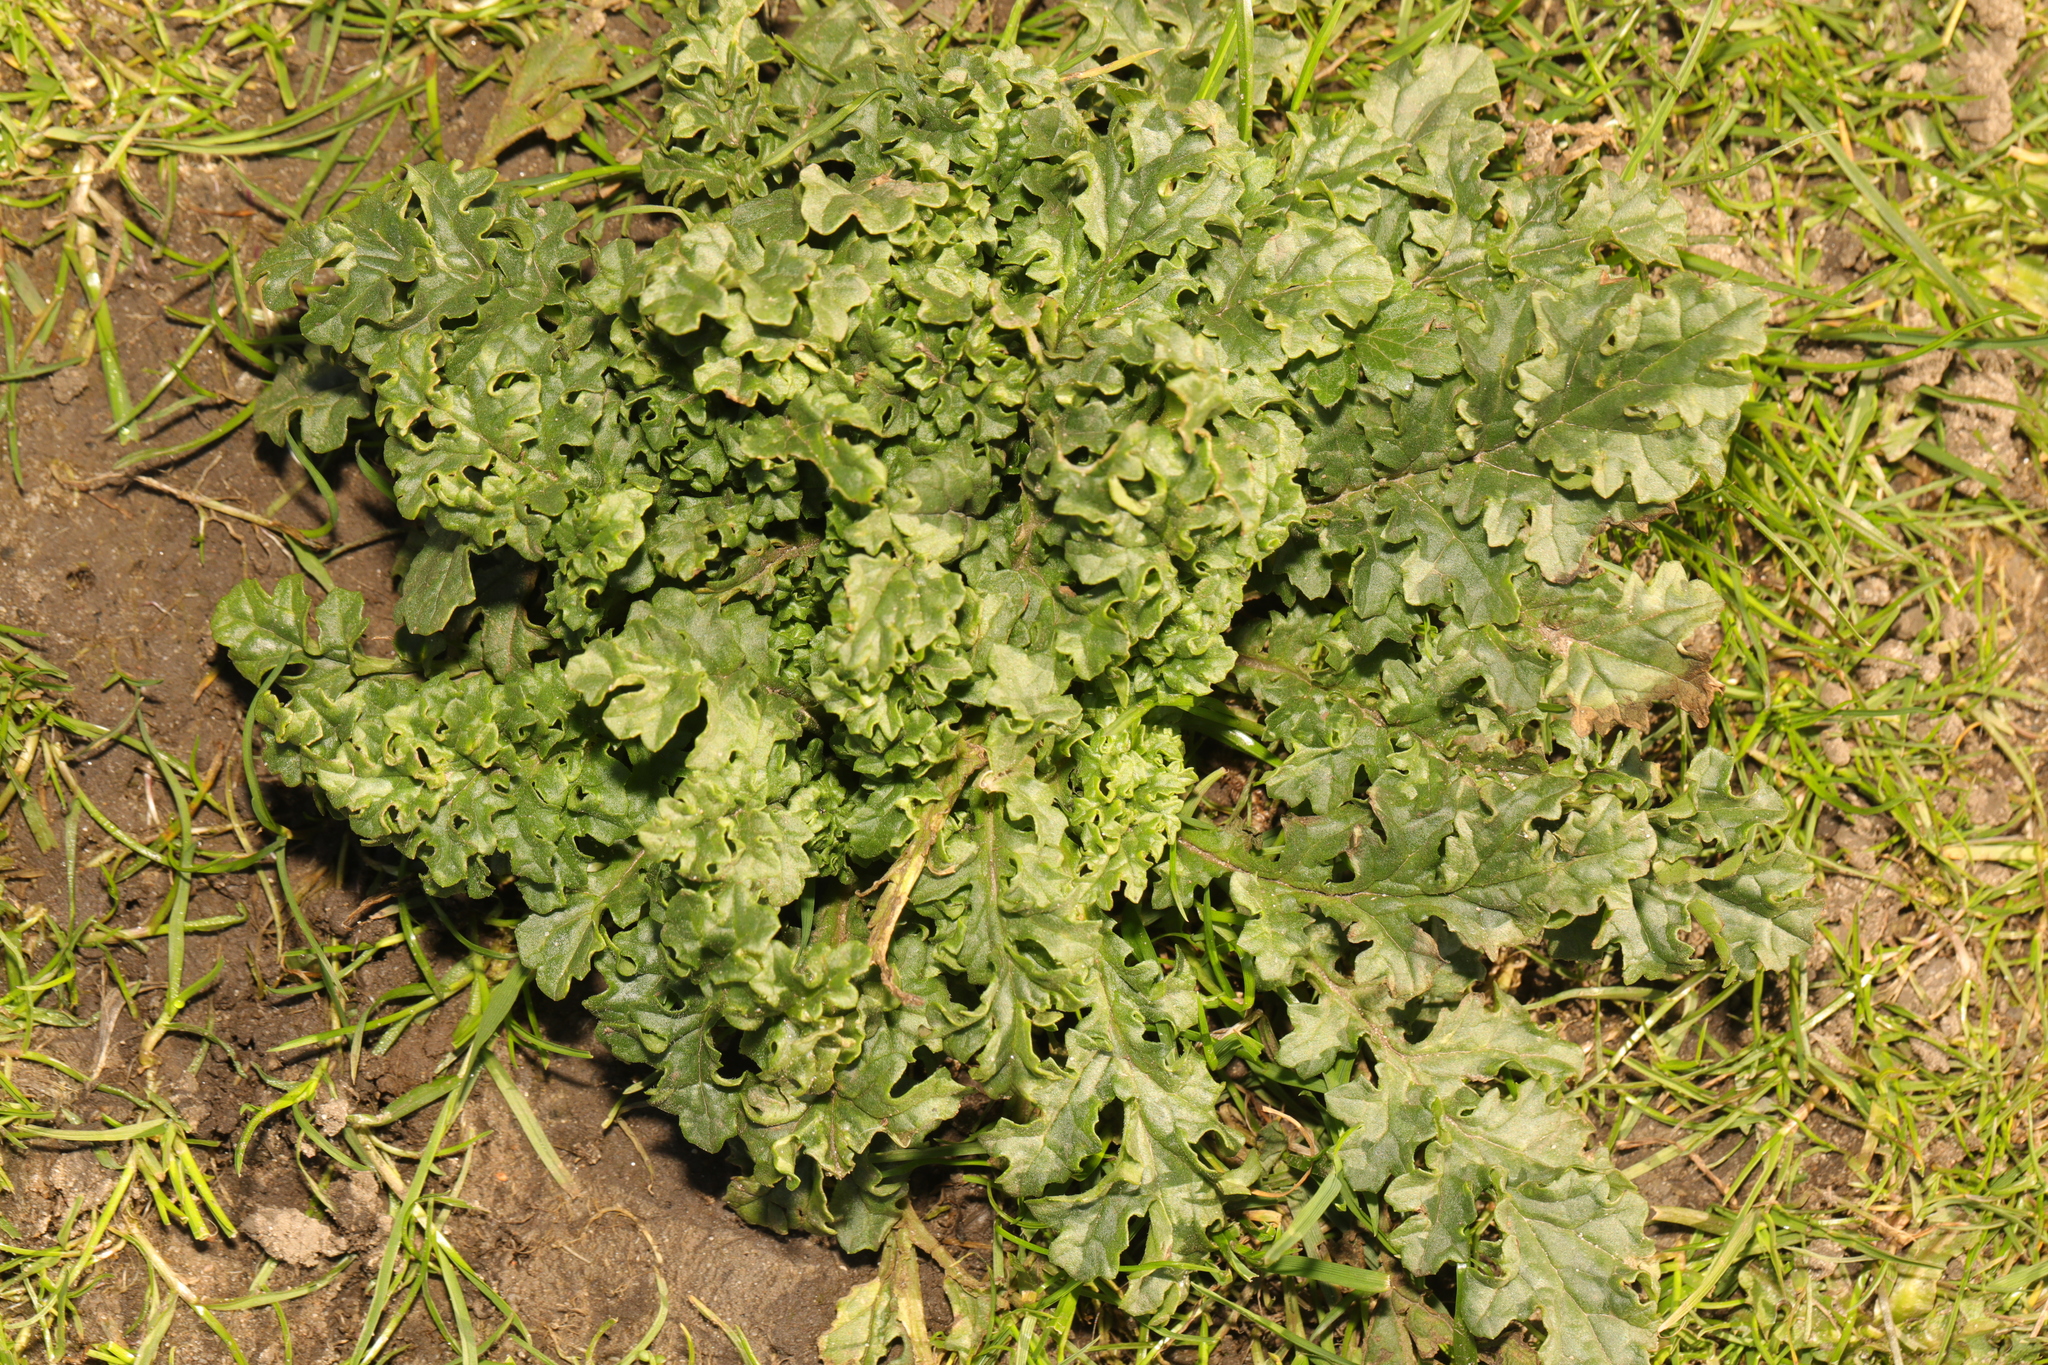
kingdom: Plantae
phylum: Tracheophyta
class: Magnoliopsida
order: Asterales
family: Asteraceae
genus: Jacobaea
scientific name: Jacobaea vulgaris
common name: Stinking willie
